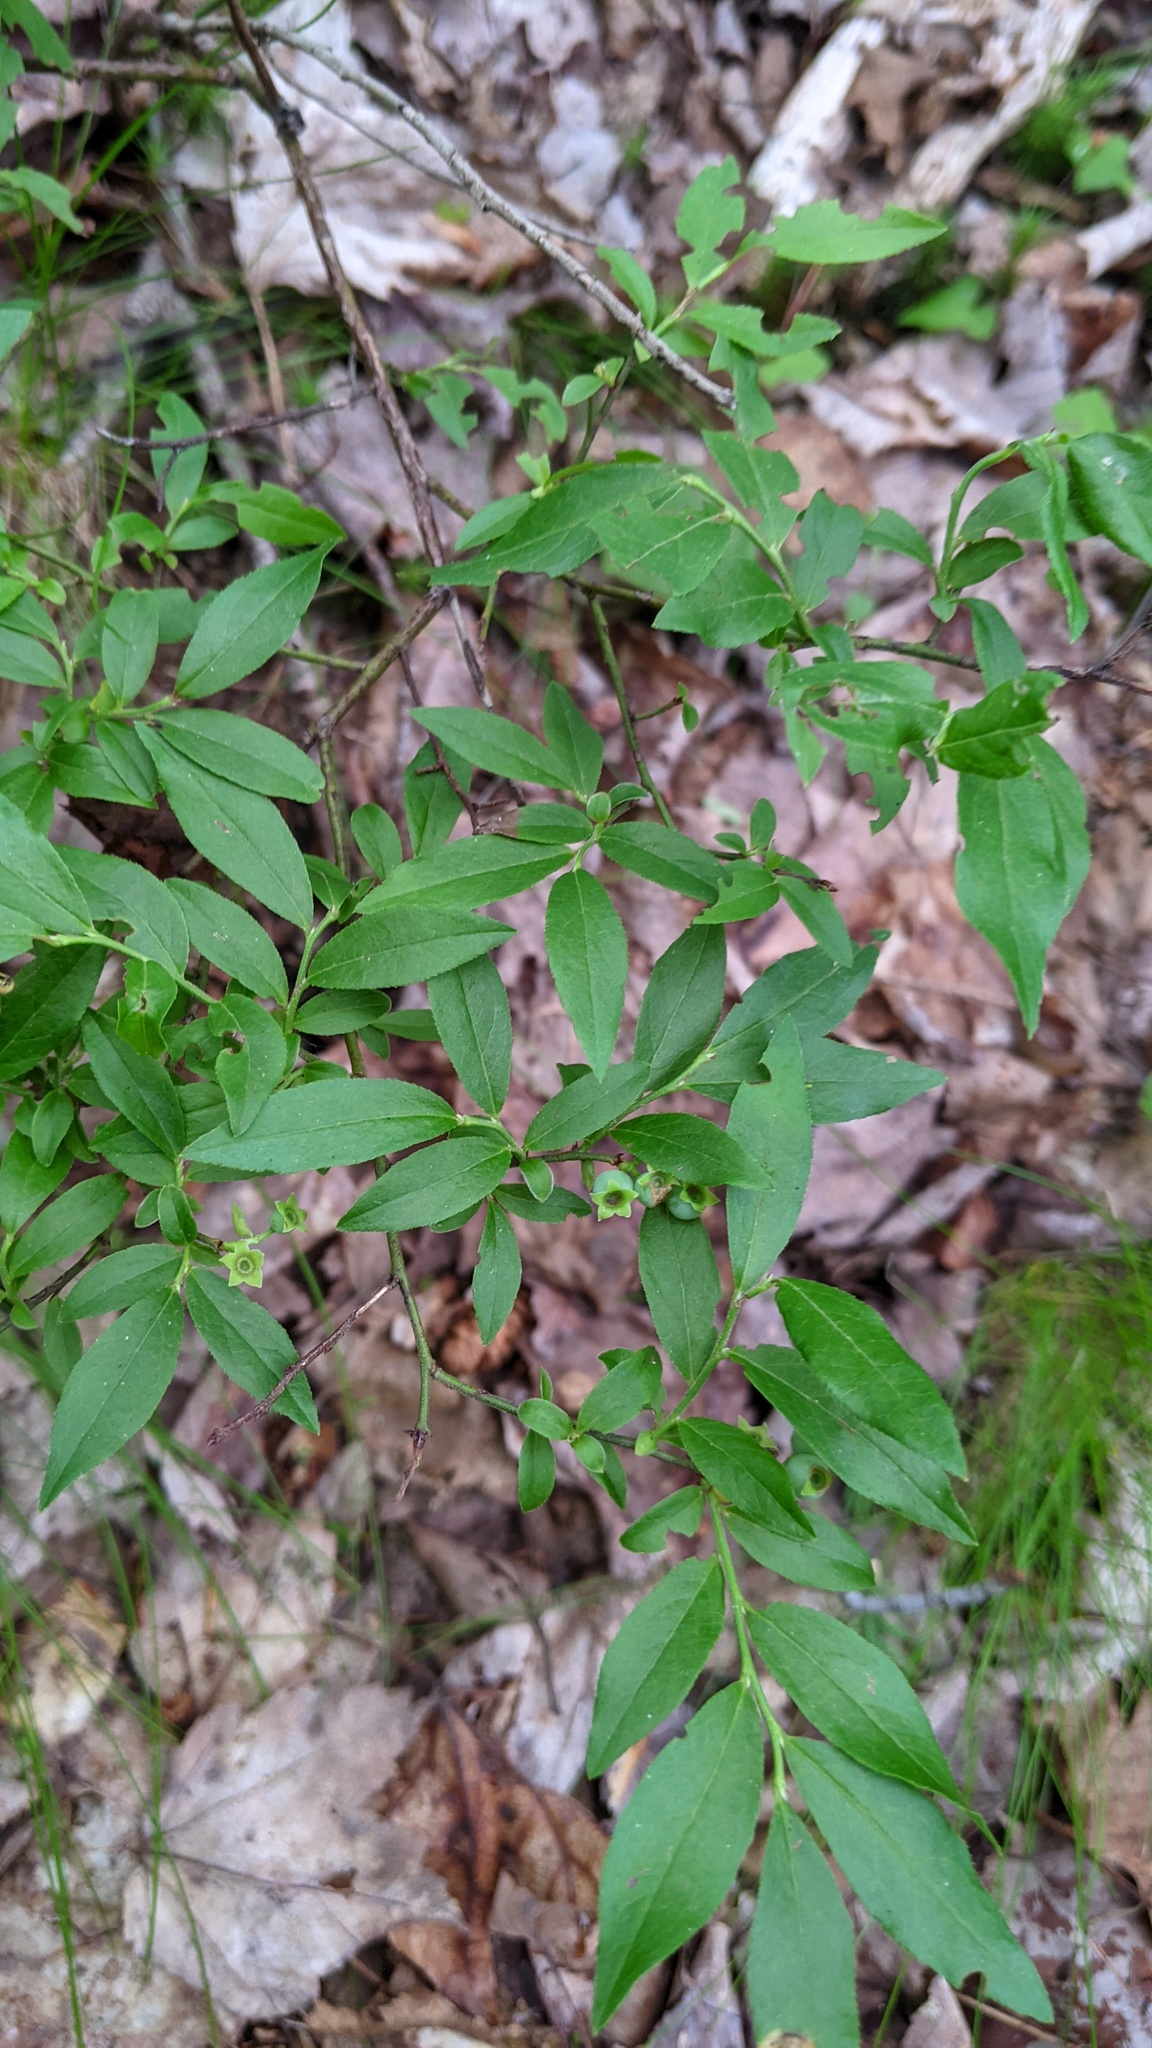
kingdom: Plantae
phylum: Tracheophyta
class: Magnoliopsida
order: Ericales
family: Ericaceae
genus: Vaccinium
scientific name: Vaccinium angustifolium
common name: Early lowbush blueberry
